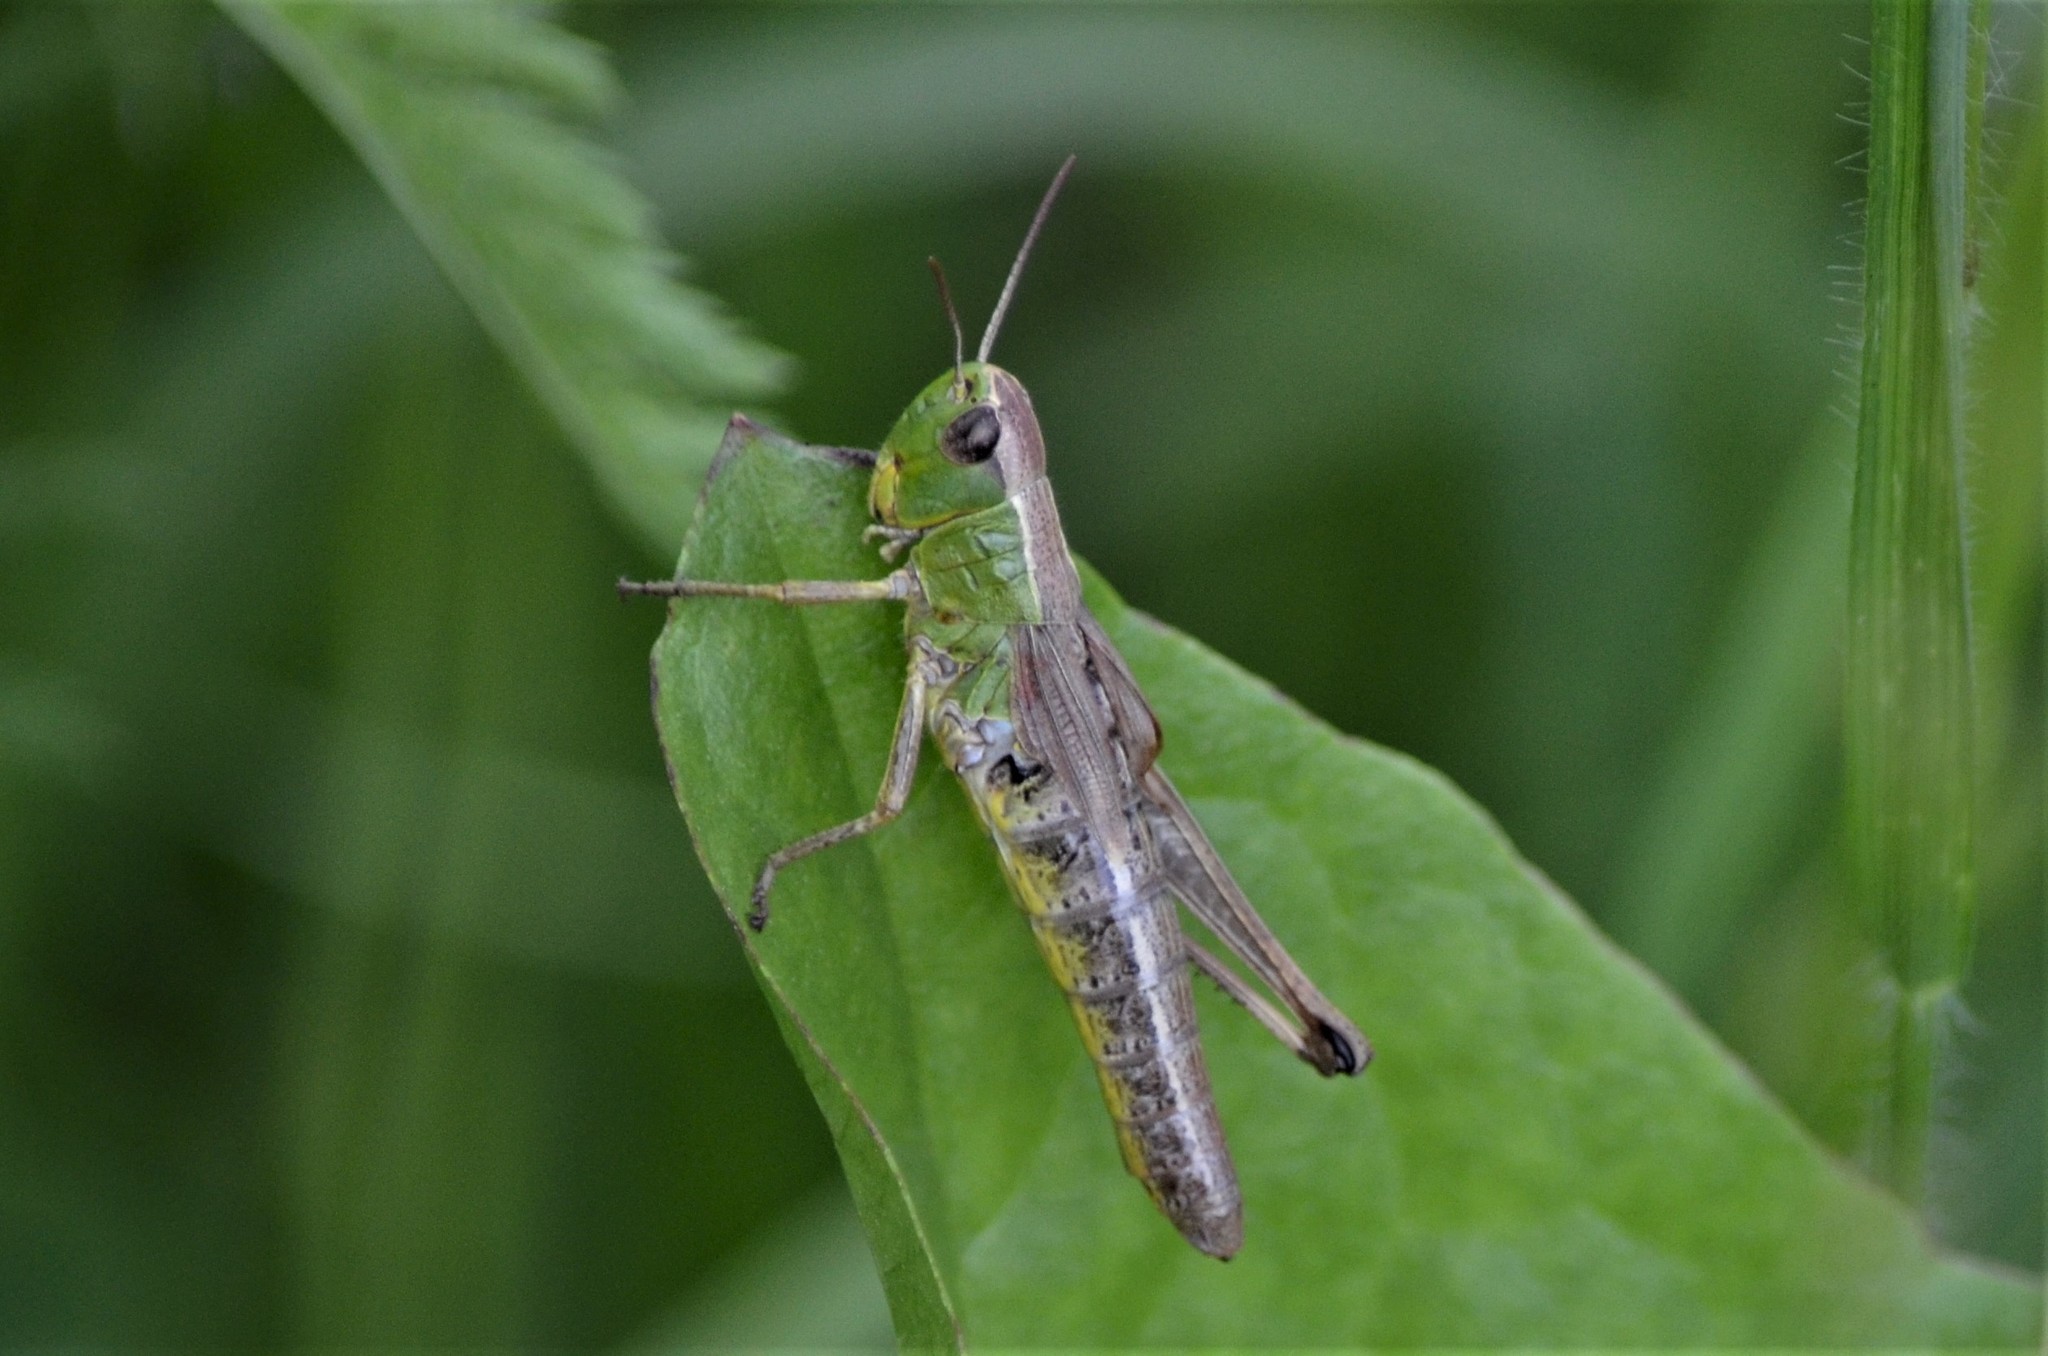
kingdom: Animalia
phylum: Arthropoda
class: Insecta
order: Orthoptera
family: Acrididae
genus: Pseudochorthippus
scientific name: Pseudochorthippus parallelus
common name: Meadow grasshopper
